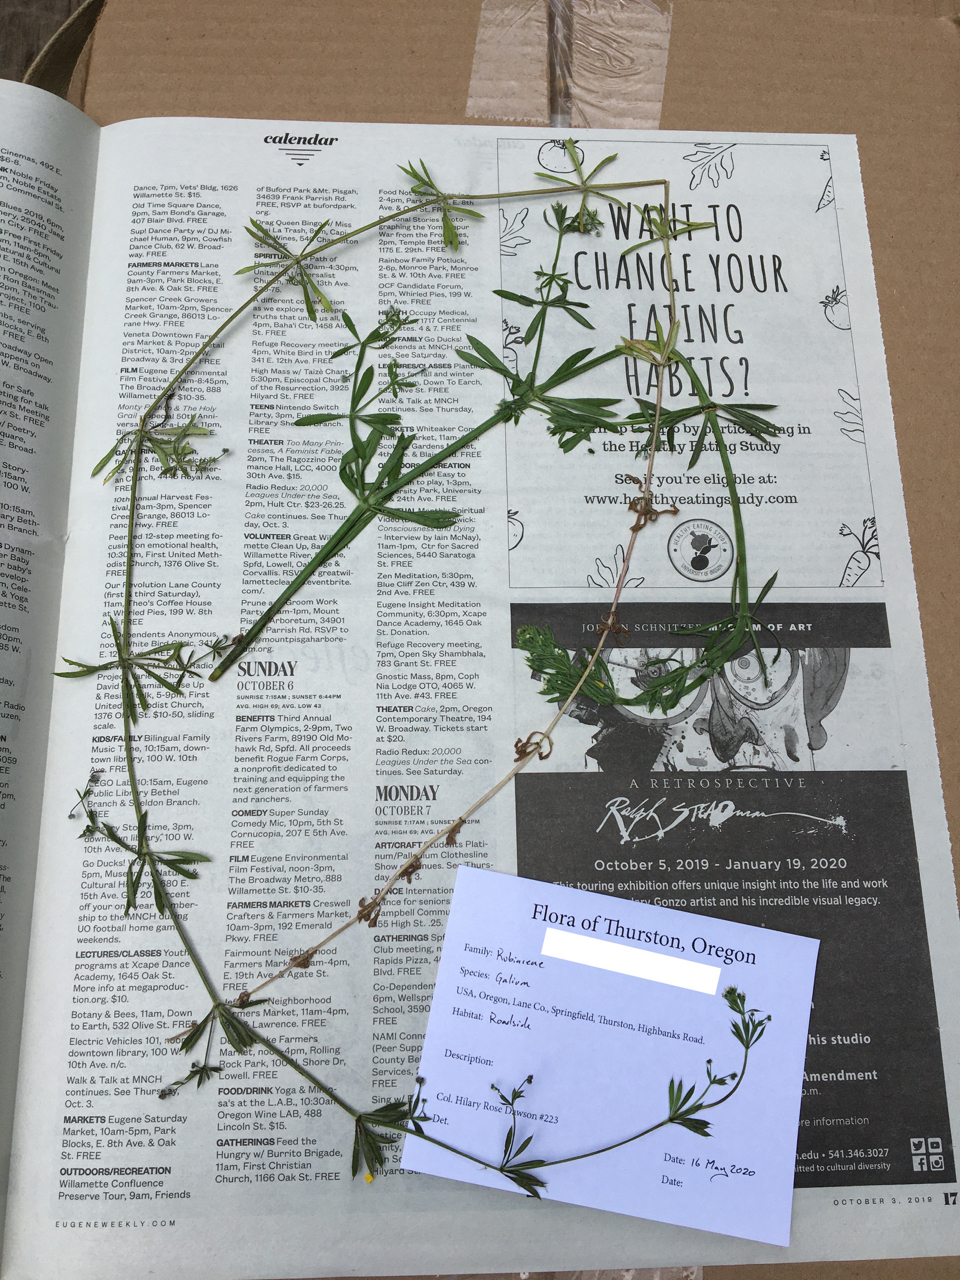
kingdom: Plantae
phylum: Tracheophyta
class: Magnoliopsida
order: Gentianales
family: Rubiaceae
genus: Galium
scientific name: Galium aparine
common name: Cleavers
